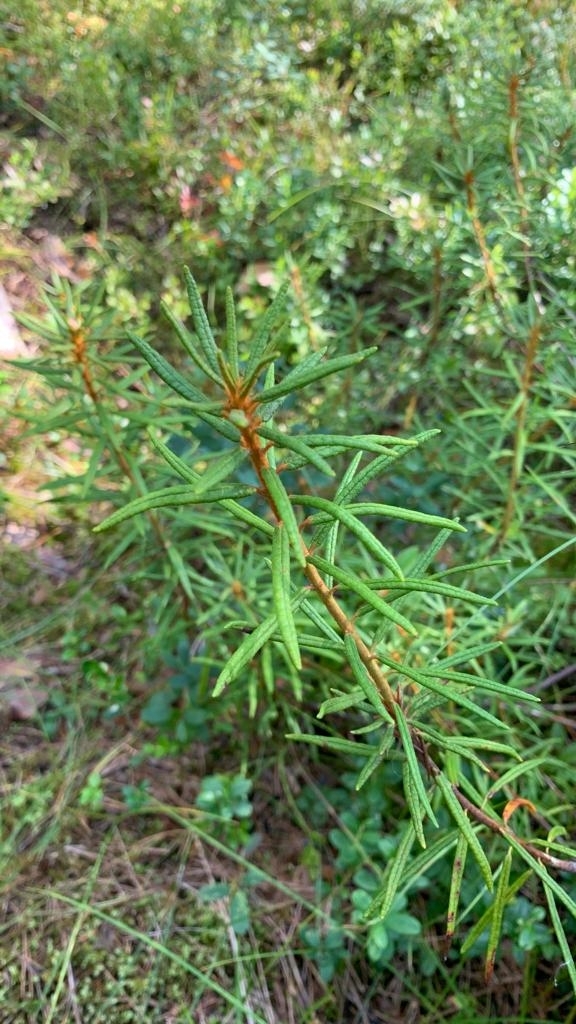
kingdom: Plantae
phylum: Tracheophyta
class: Magnoliopsida
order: Ericales
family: Ericaceae
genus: Rhododendron
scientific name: Rhododendron tomentosum
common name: Marsh labrador tea
